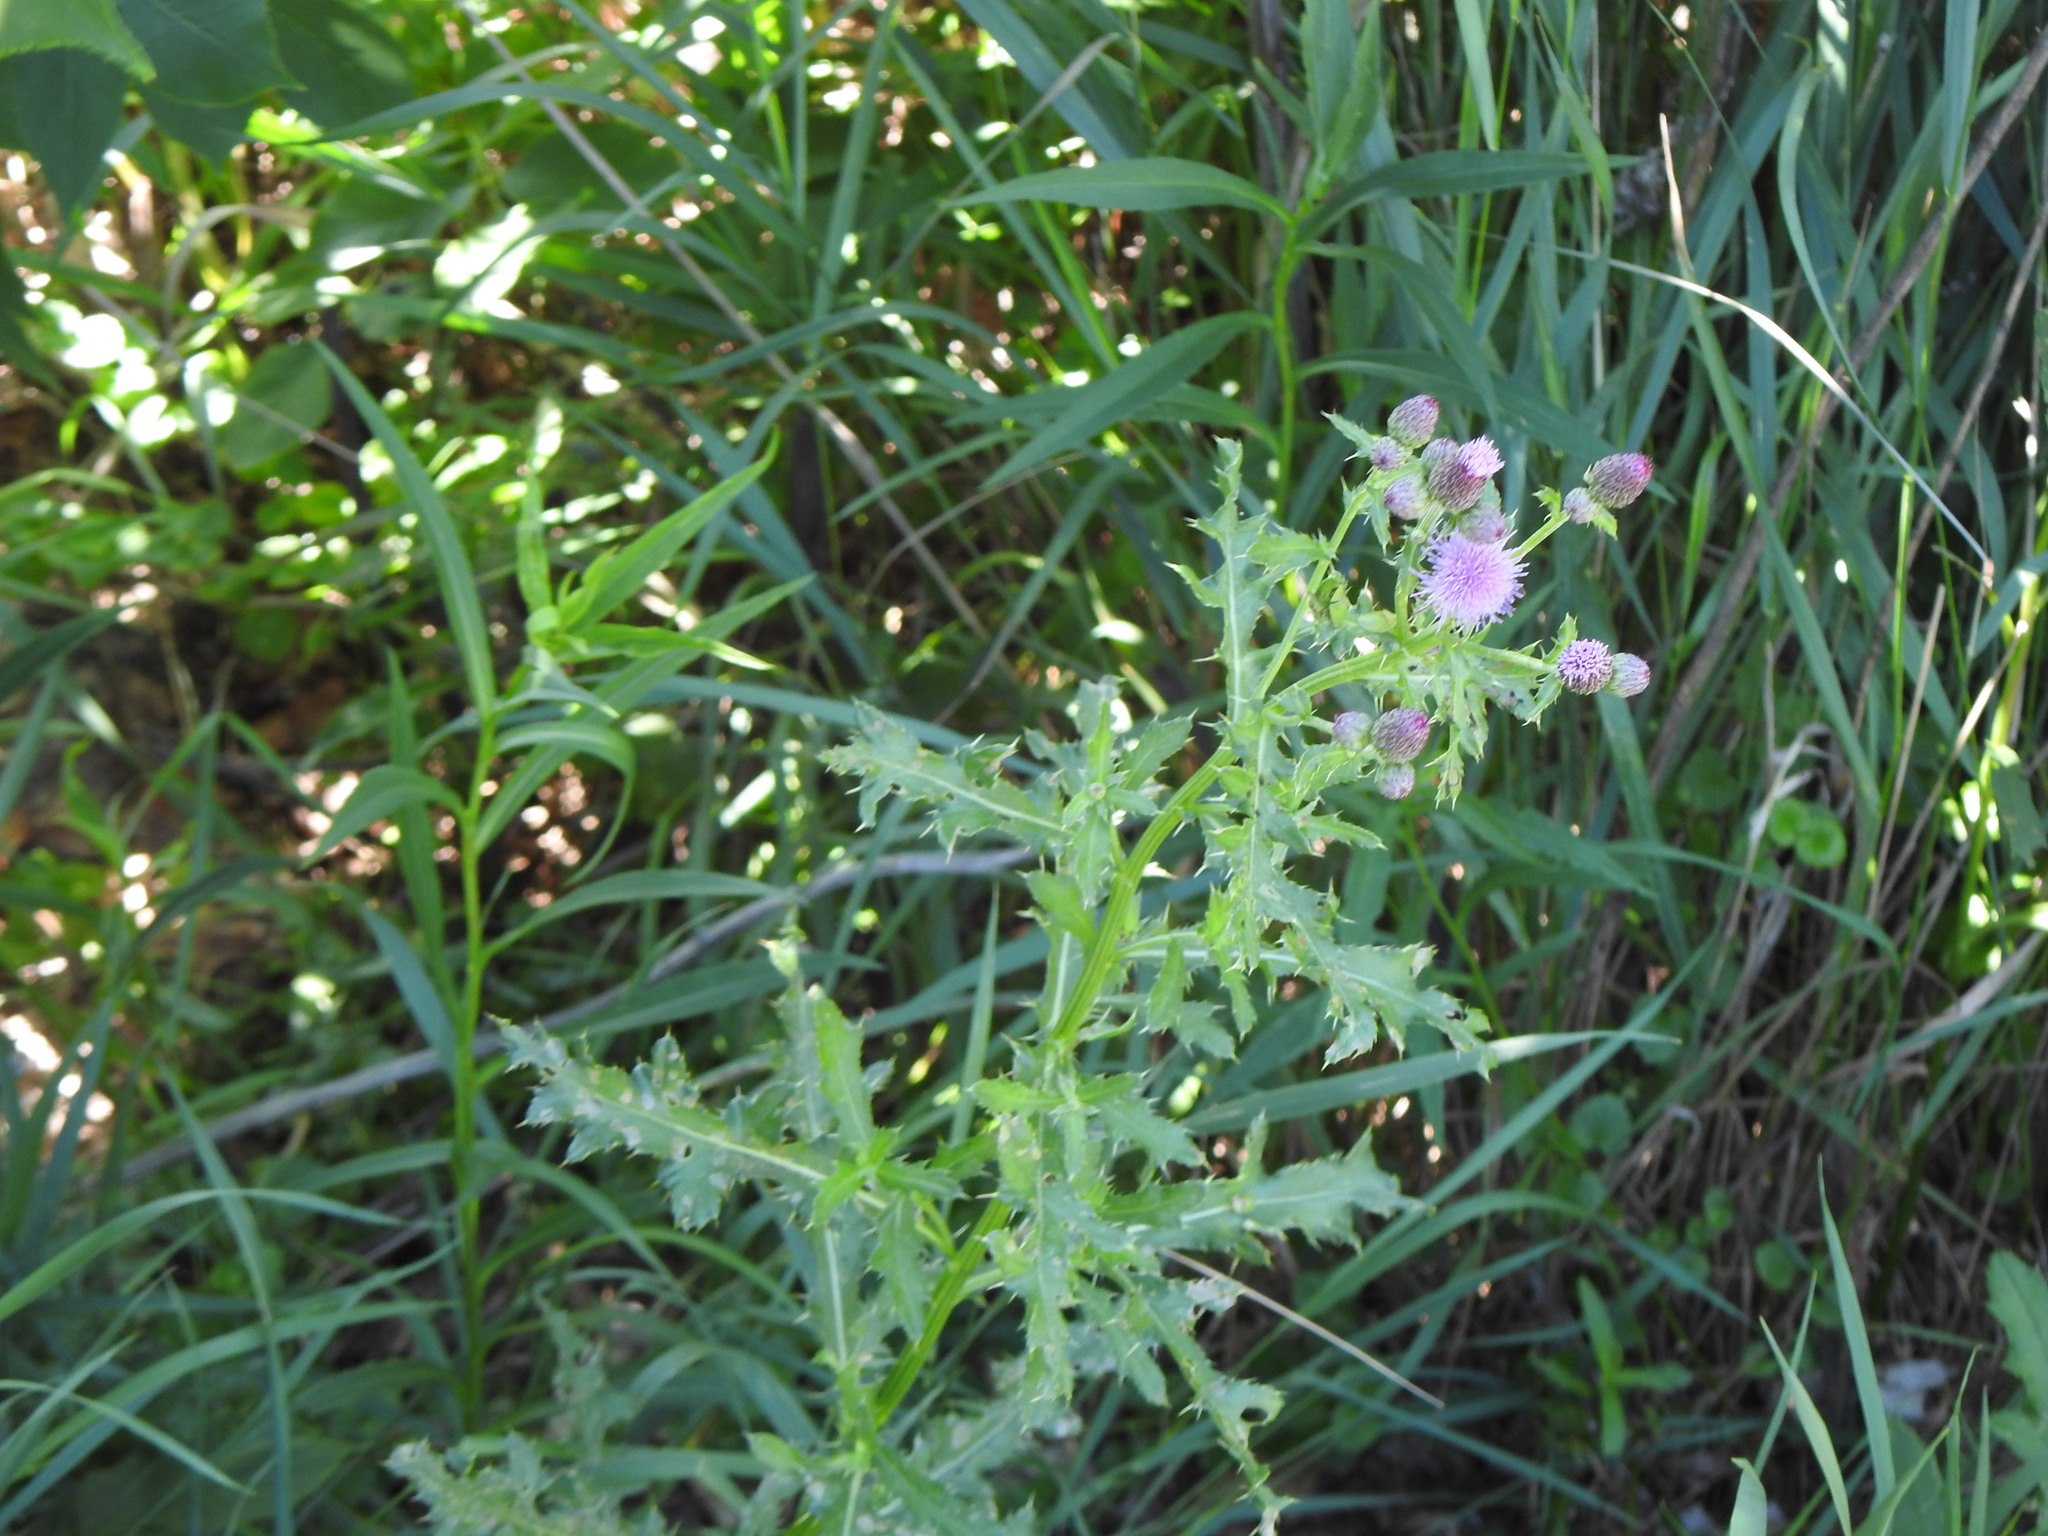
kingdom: Plantae
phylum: Tracheophyta
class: Magnoliopsida
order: Asterales
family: Asteraceae
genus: Cirsium
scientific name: Cirsium arvense
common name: Creeping thistle
